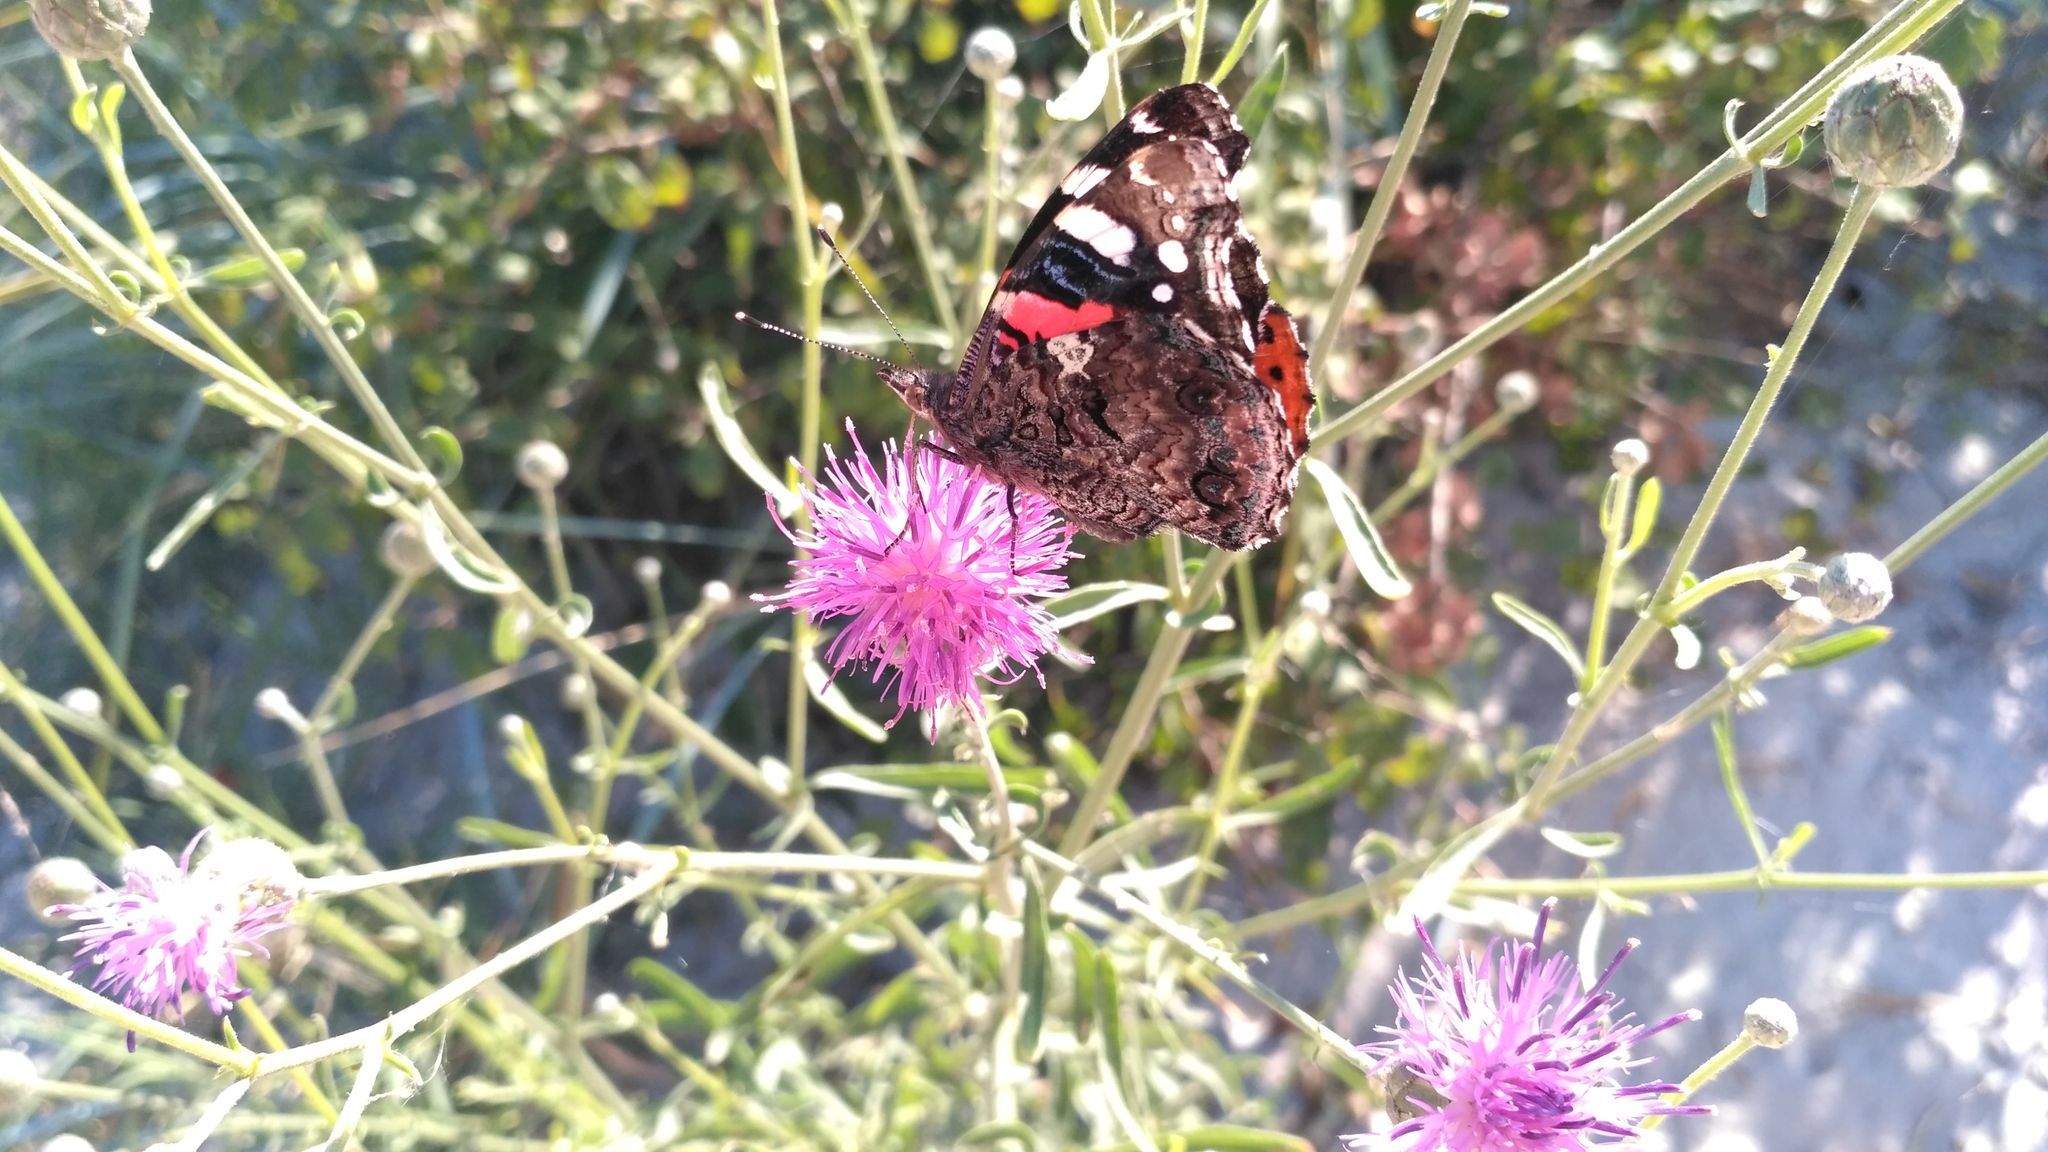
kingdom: Animalia
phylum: Arthropoda
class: Insecta
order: Lepidoptera
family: Nymphalidae
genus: Vanessa
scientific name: Vanessa atalanta
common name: Red admiral
